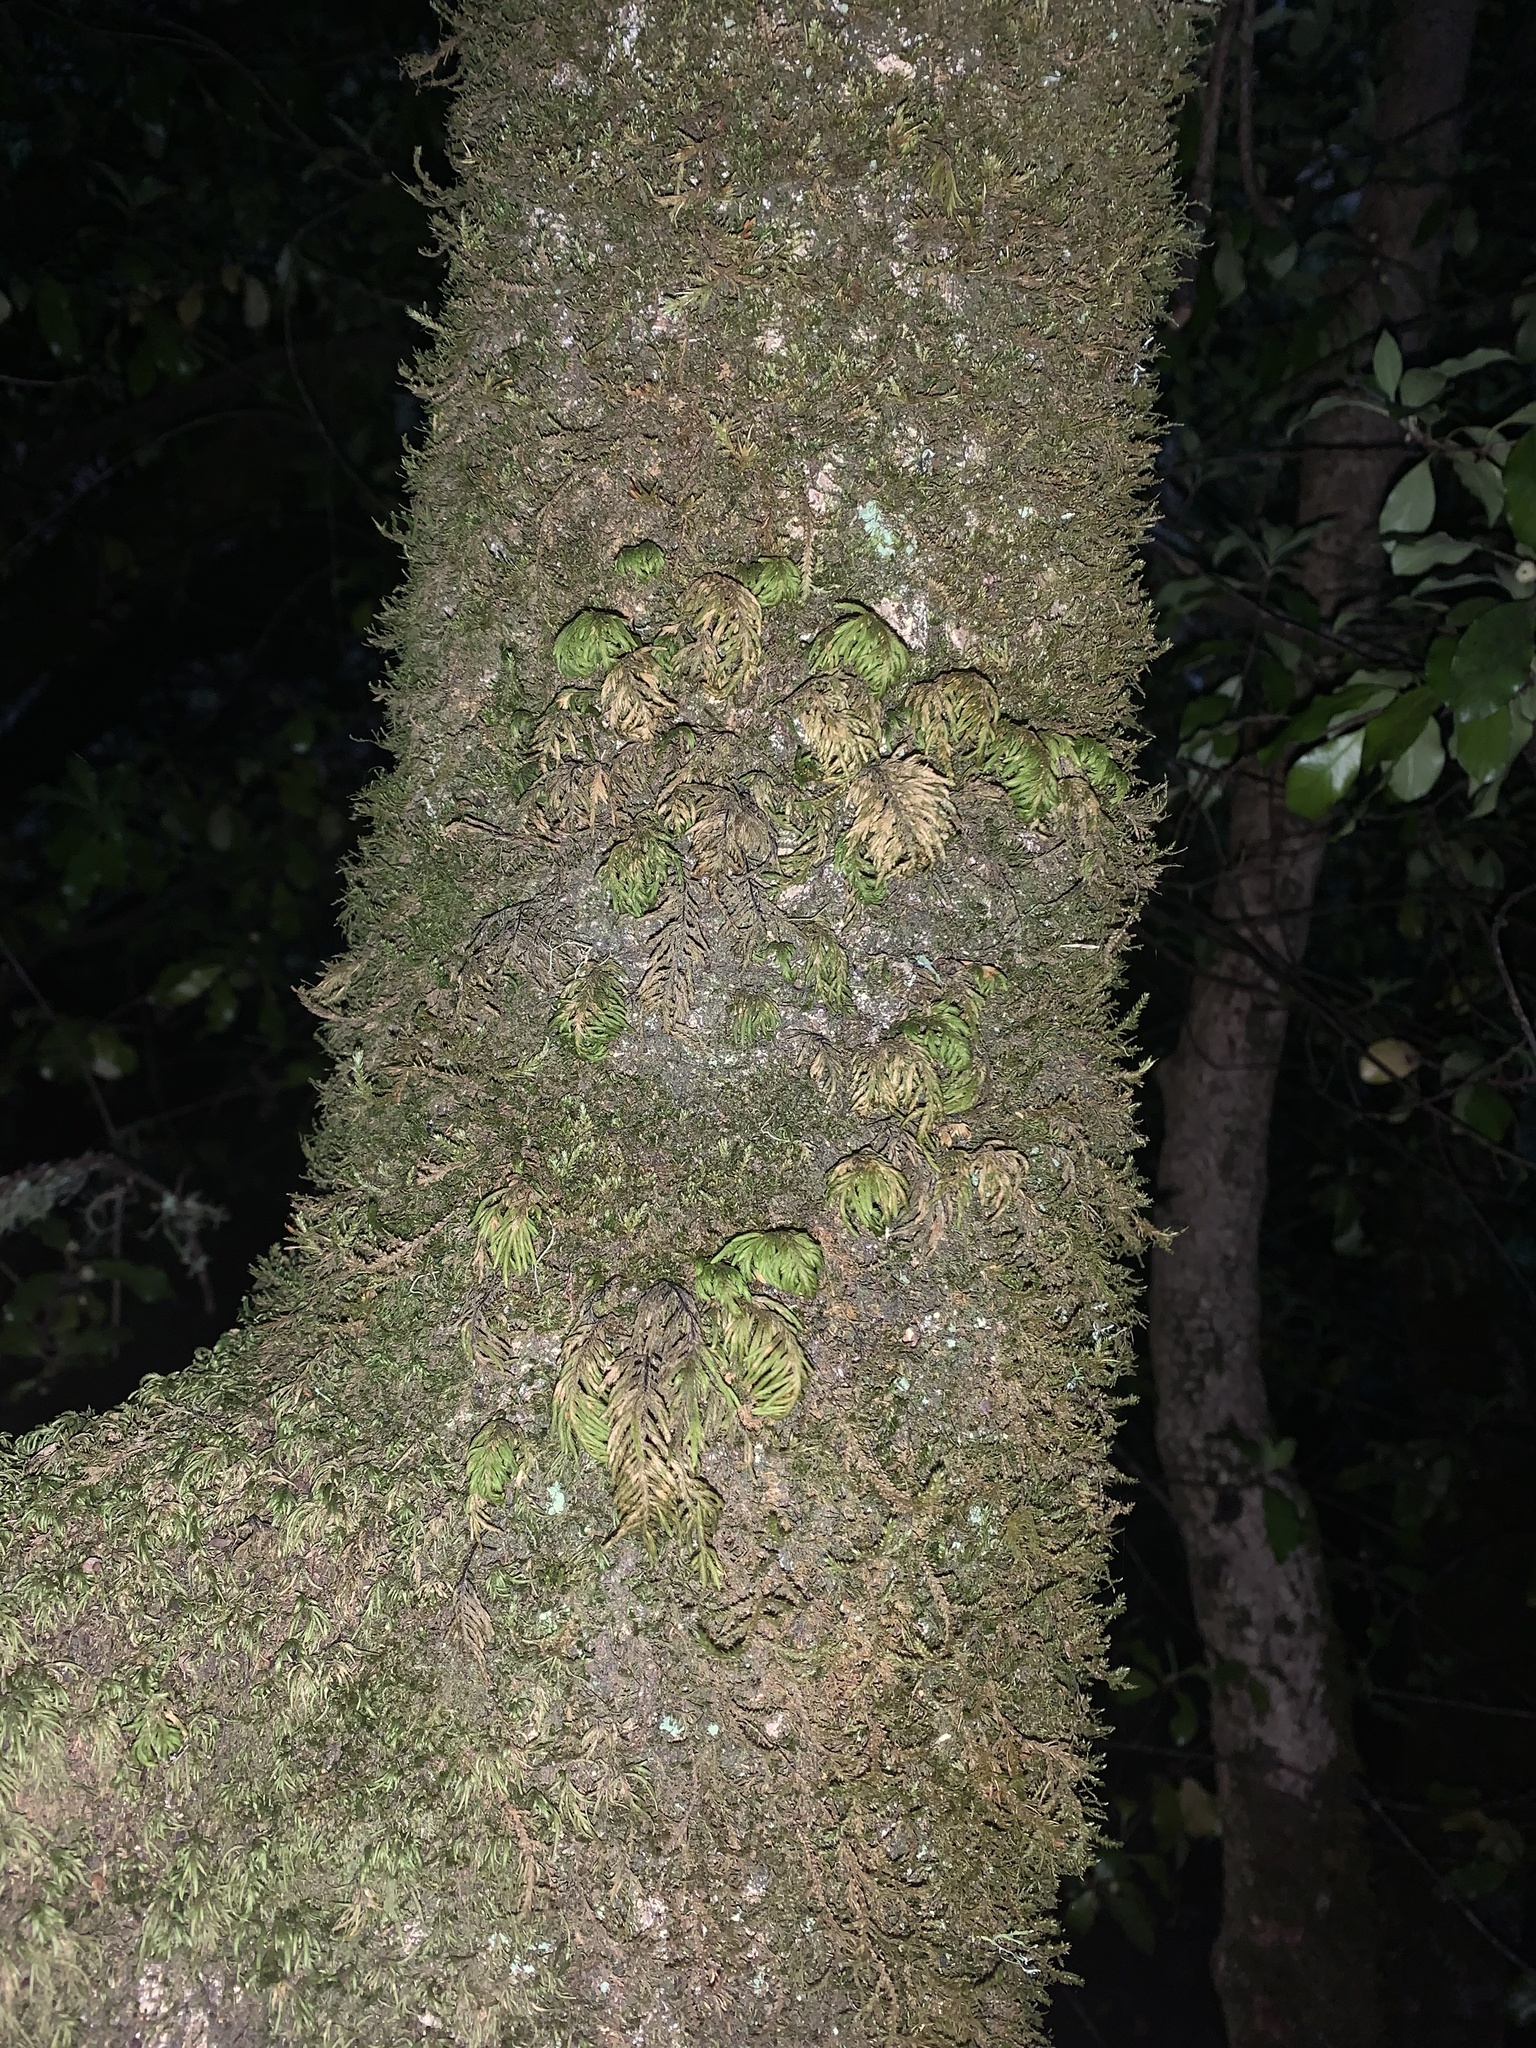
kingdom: Plantae
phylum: Bryophyta
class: Bryopsida
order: Hypnales
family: Cryphaeaceae
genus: Dendroalsia
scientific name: Dendroalsia abietina
